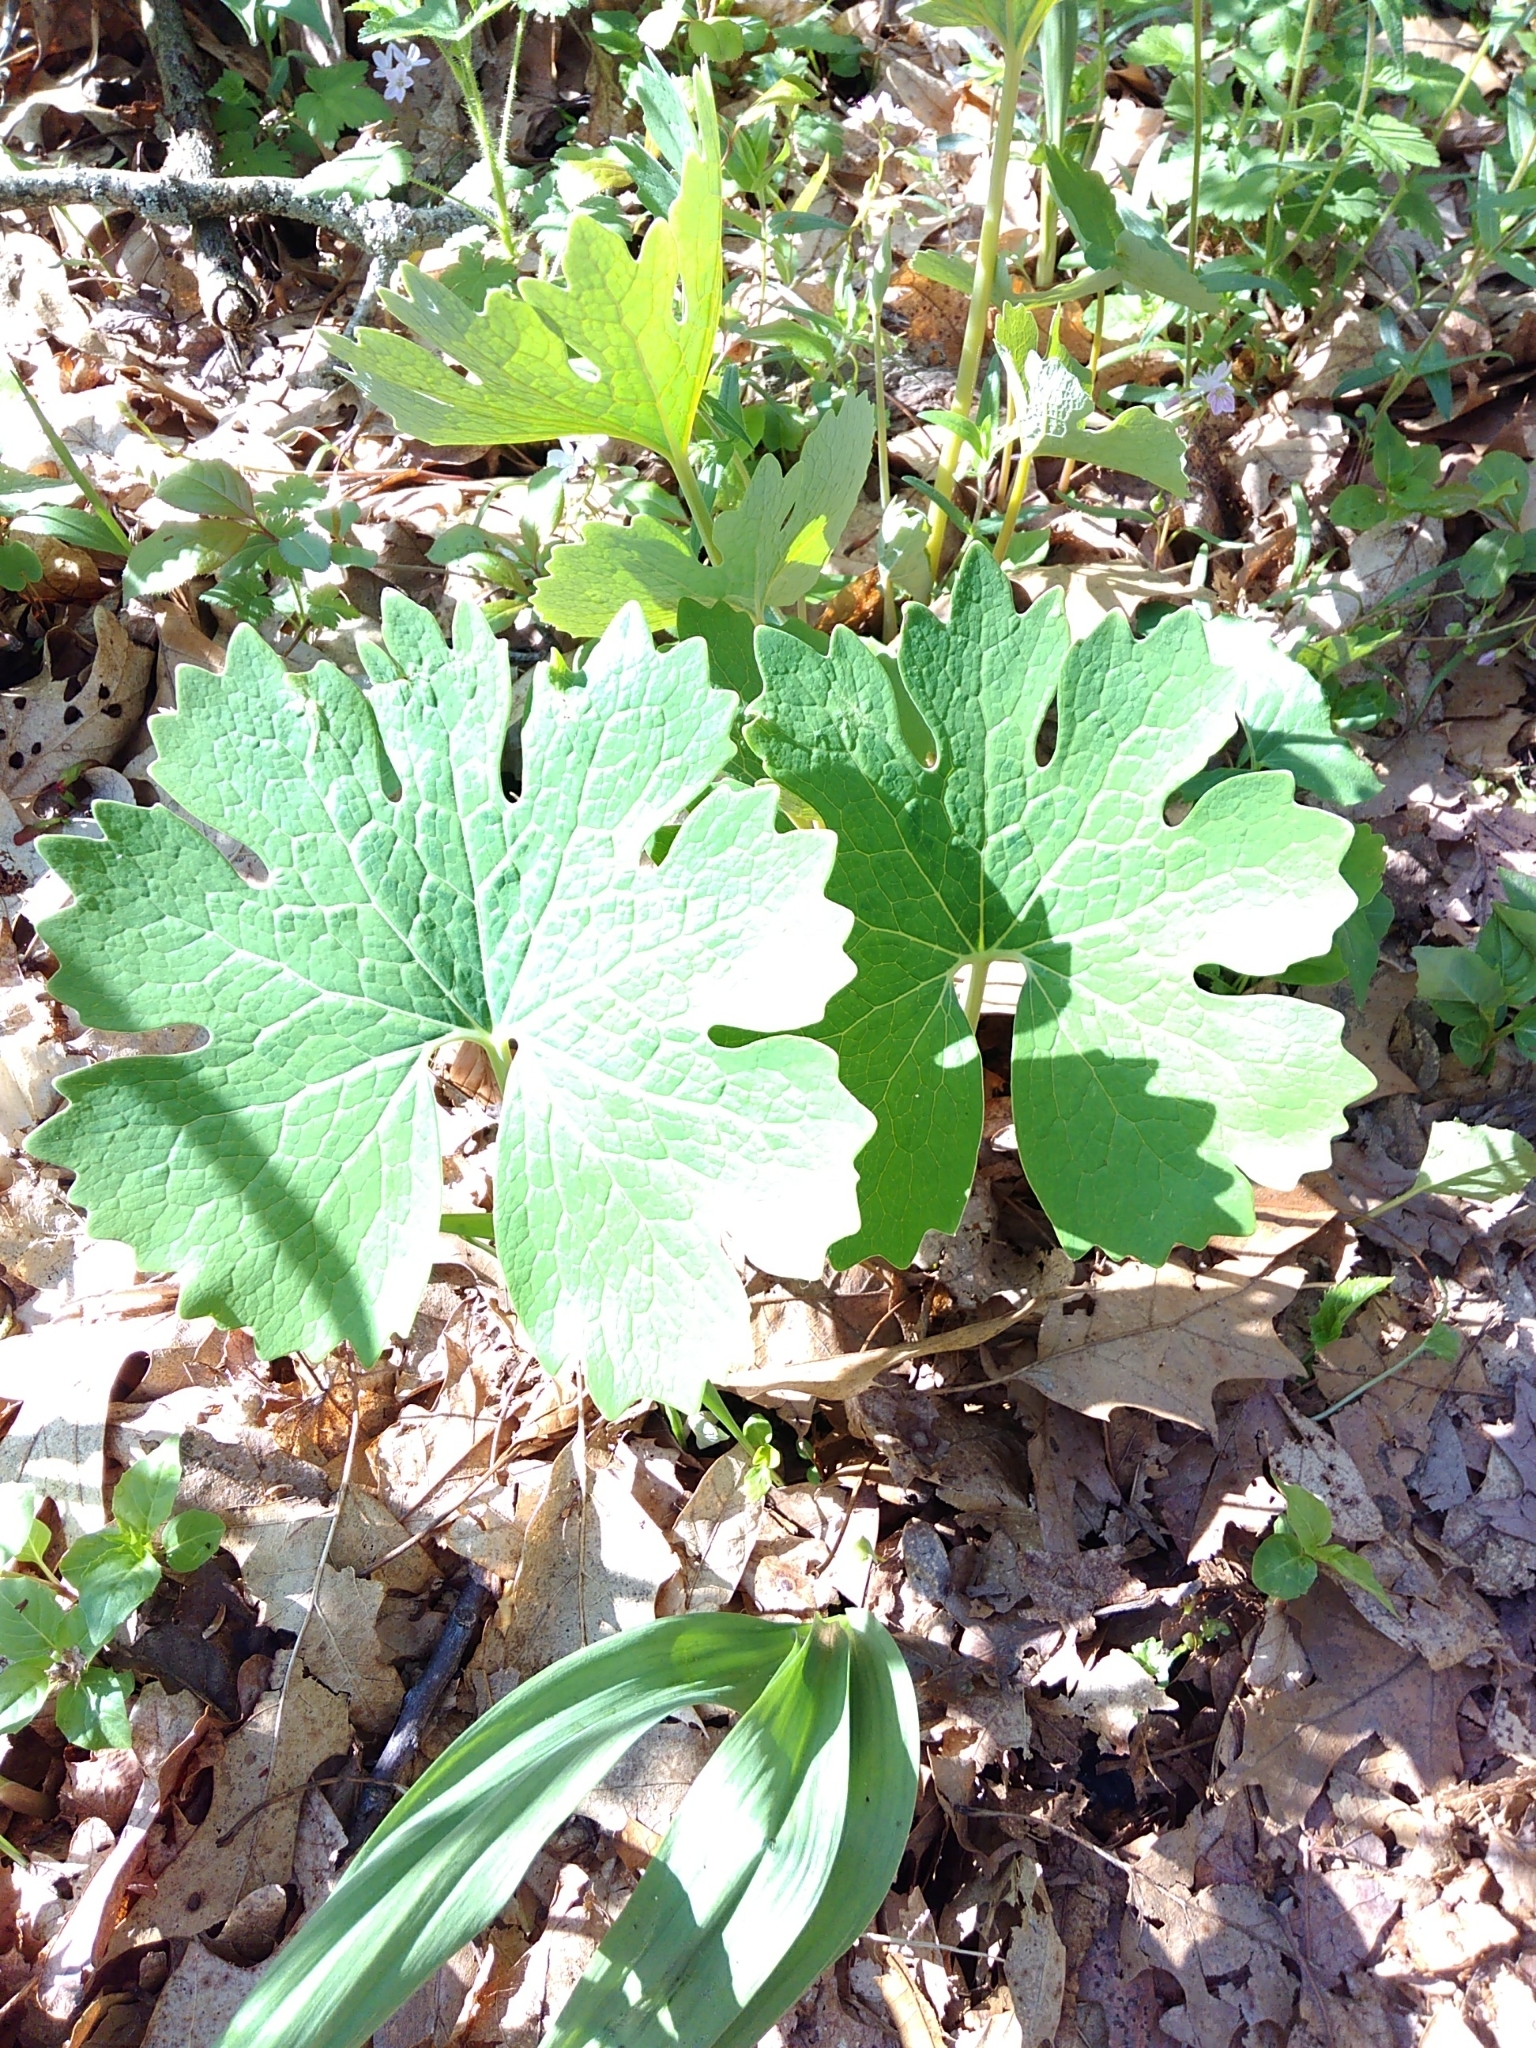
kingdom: Plantae
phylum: Tracheophyta
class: Magnoliopsida
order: Ranunculales
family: Papaveraceae
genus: Sanguinaria
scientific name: Sanguinaria canadensis
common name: Bloodroot
